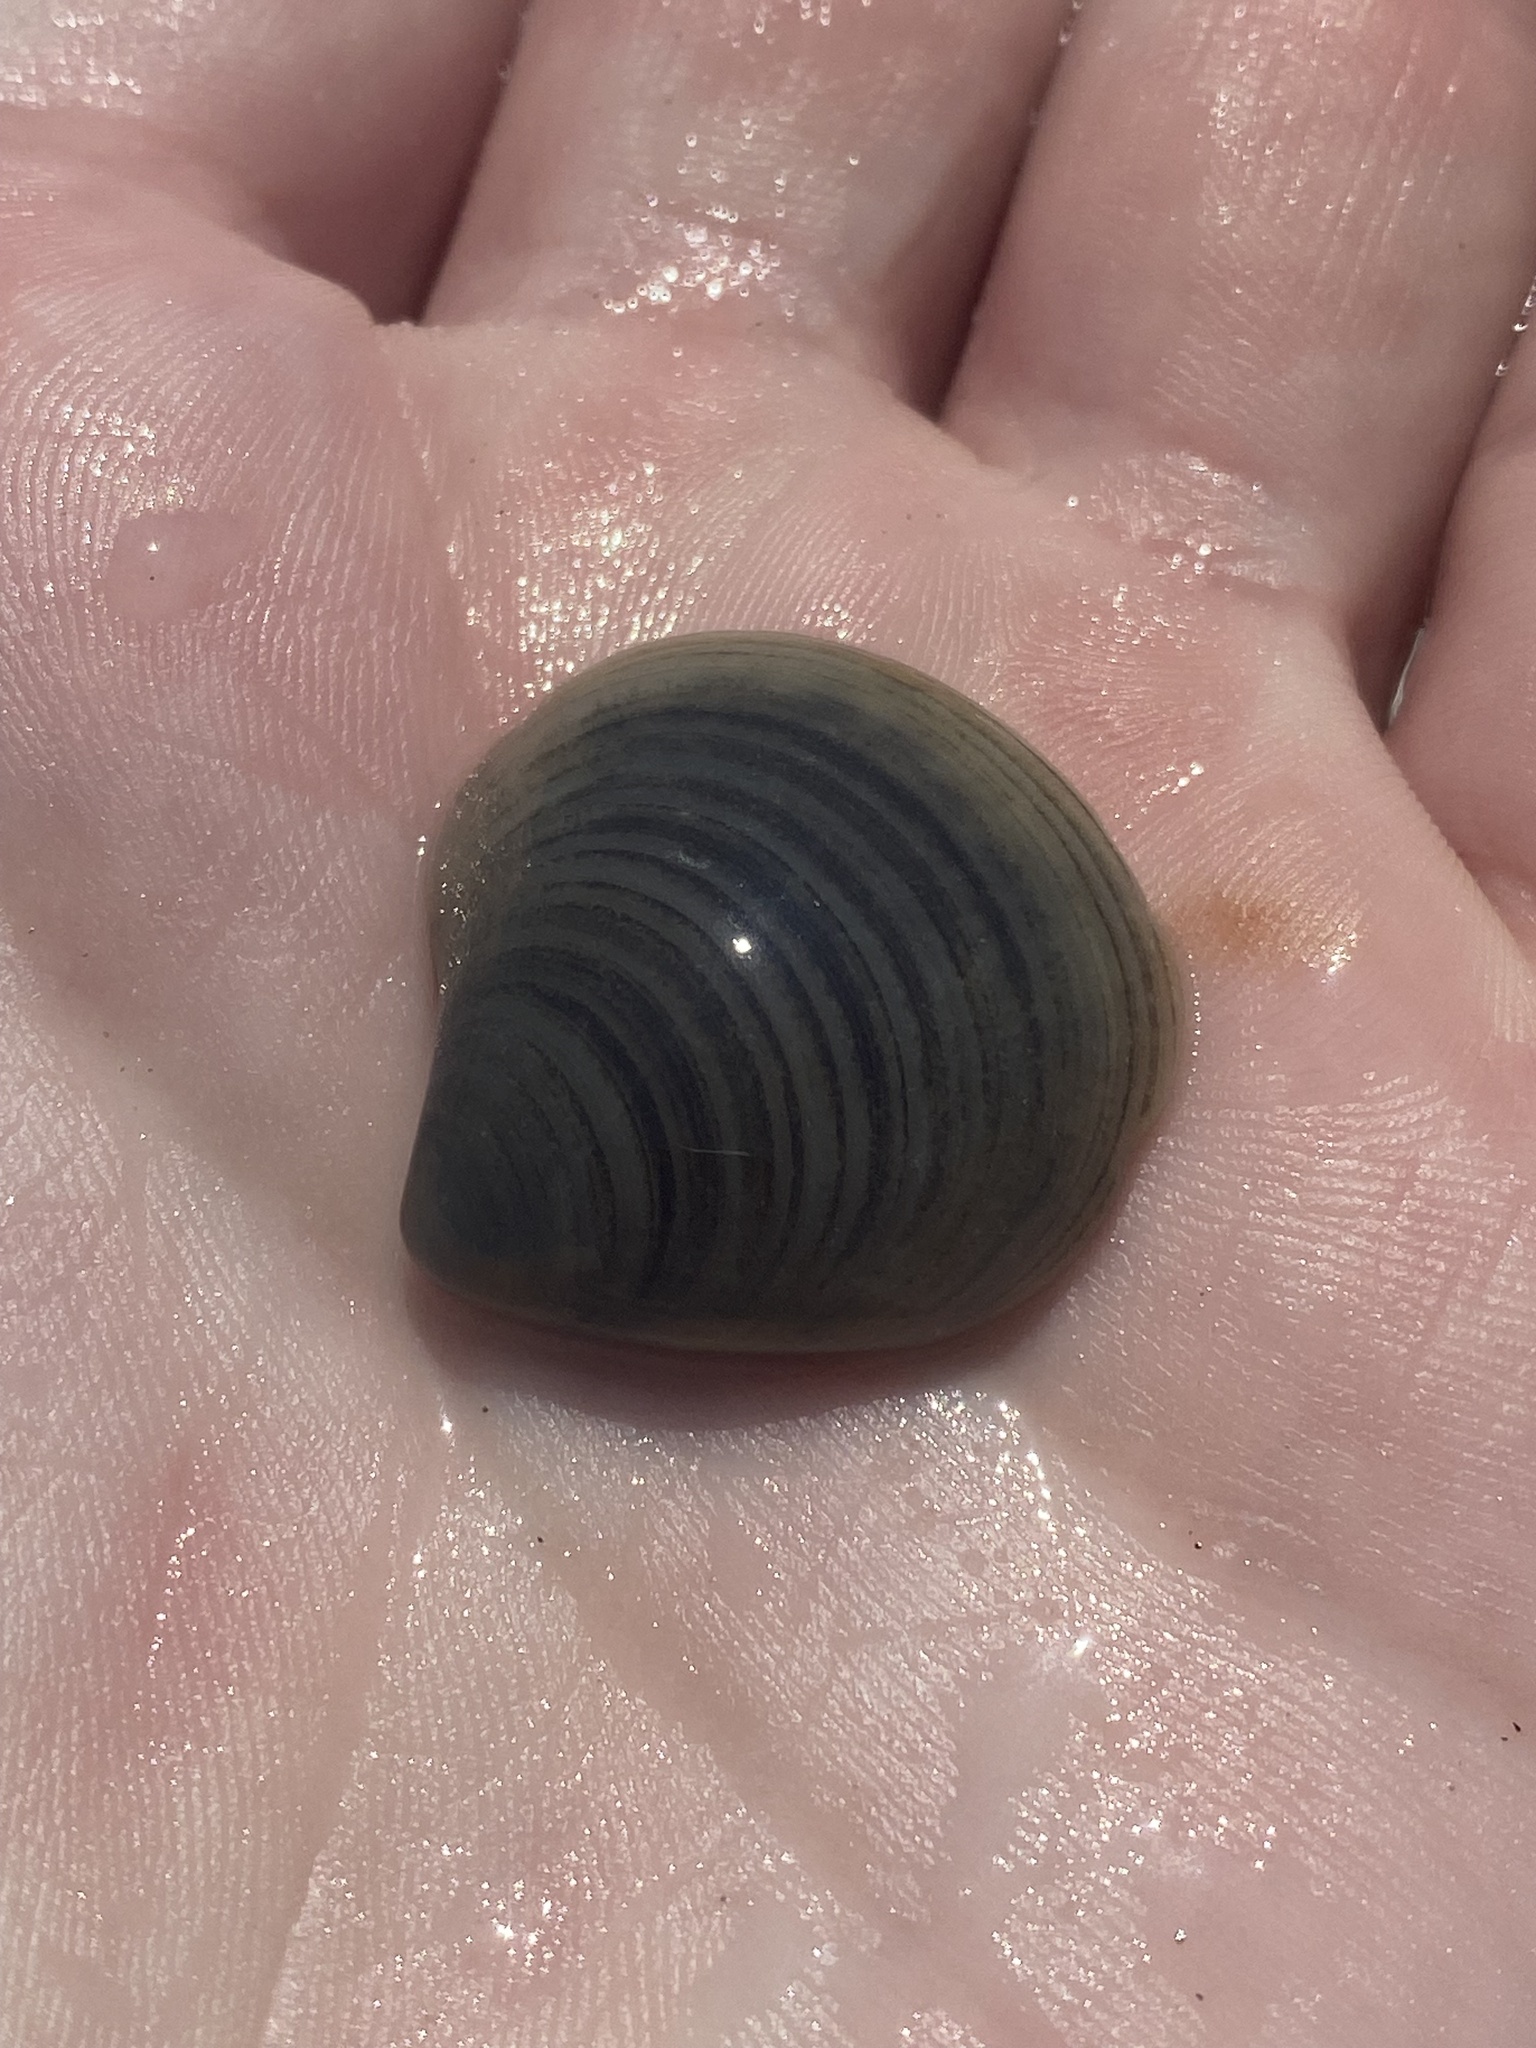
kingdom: Animalia
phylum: Mollusca
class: Bivalvia
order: Cardiida
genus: Isocrassina
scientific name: Isocrassina
